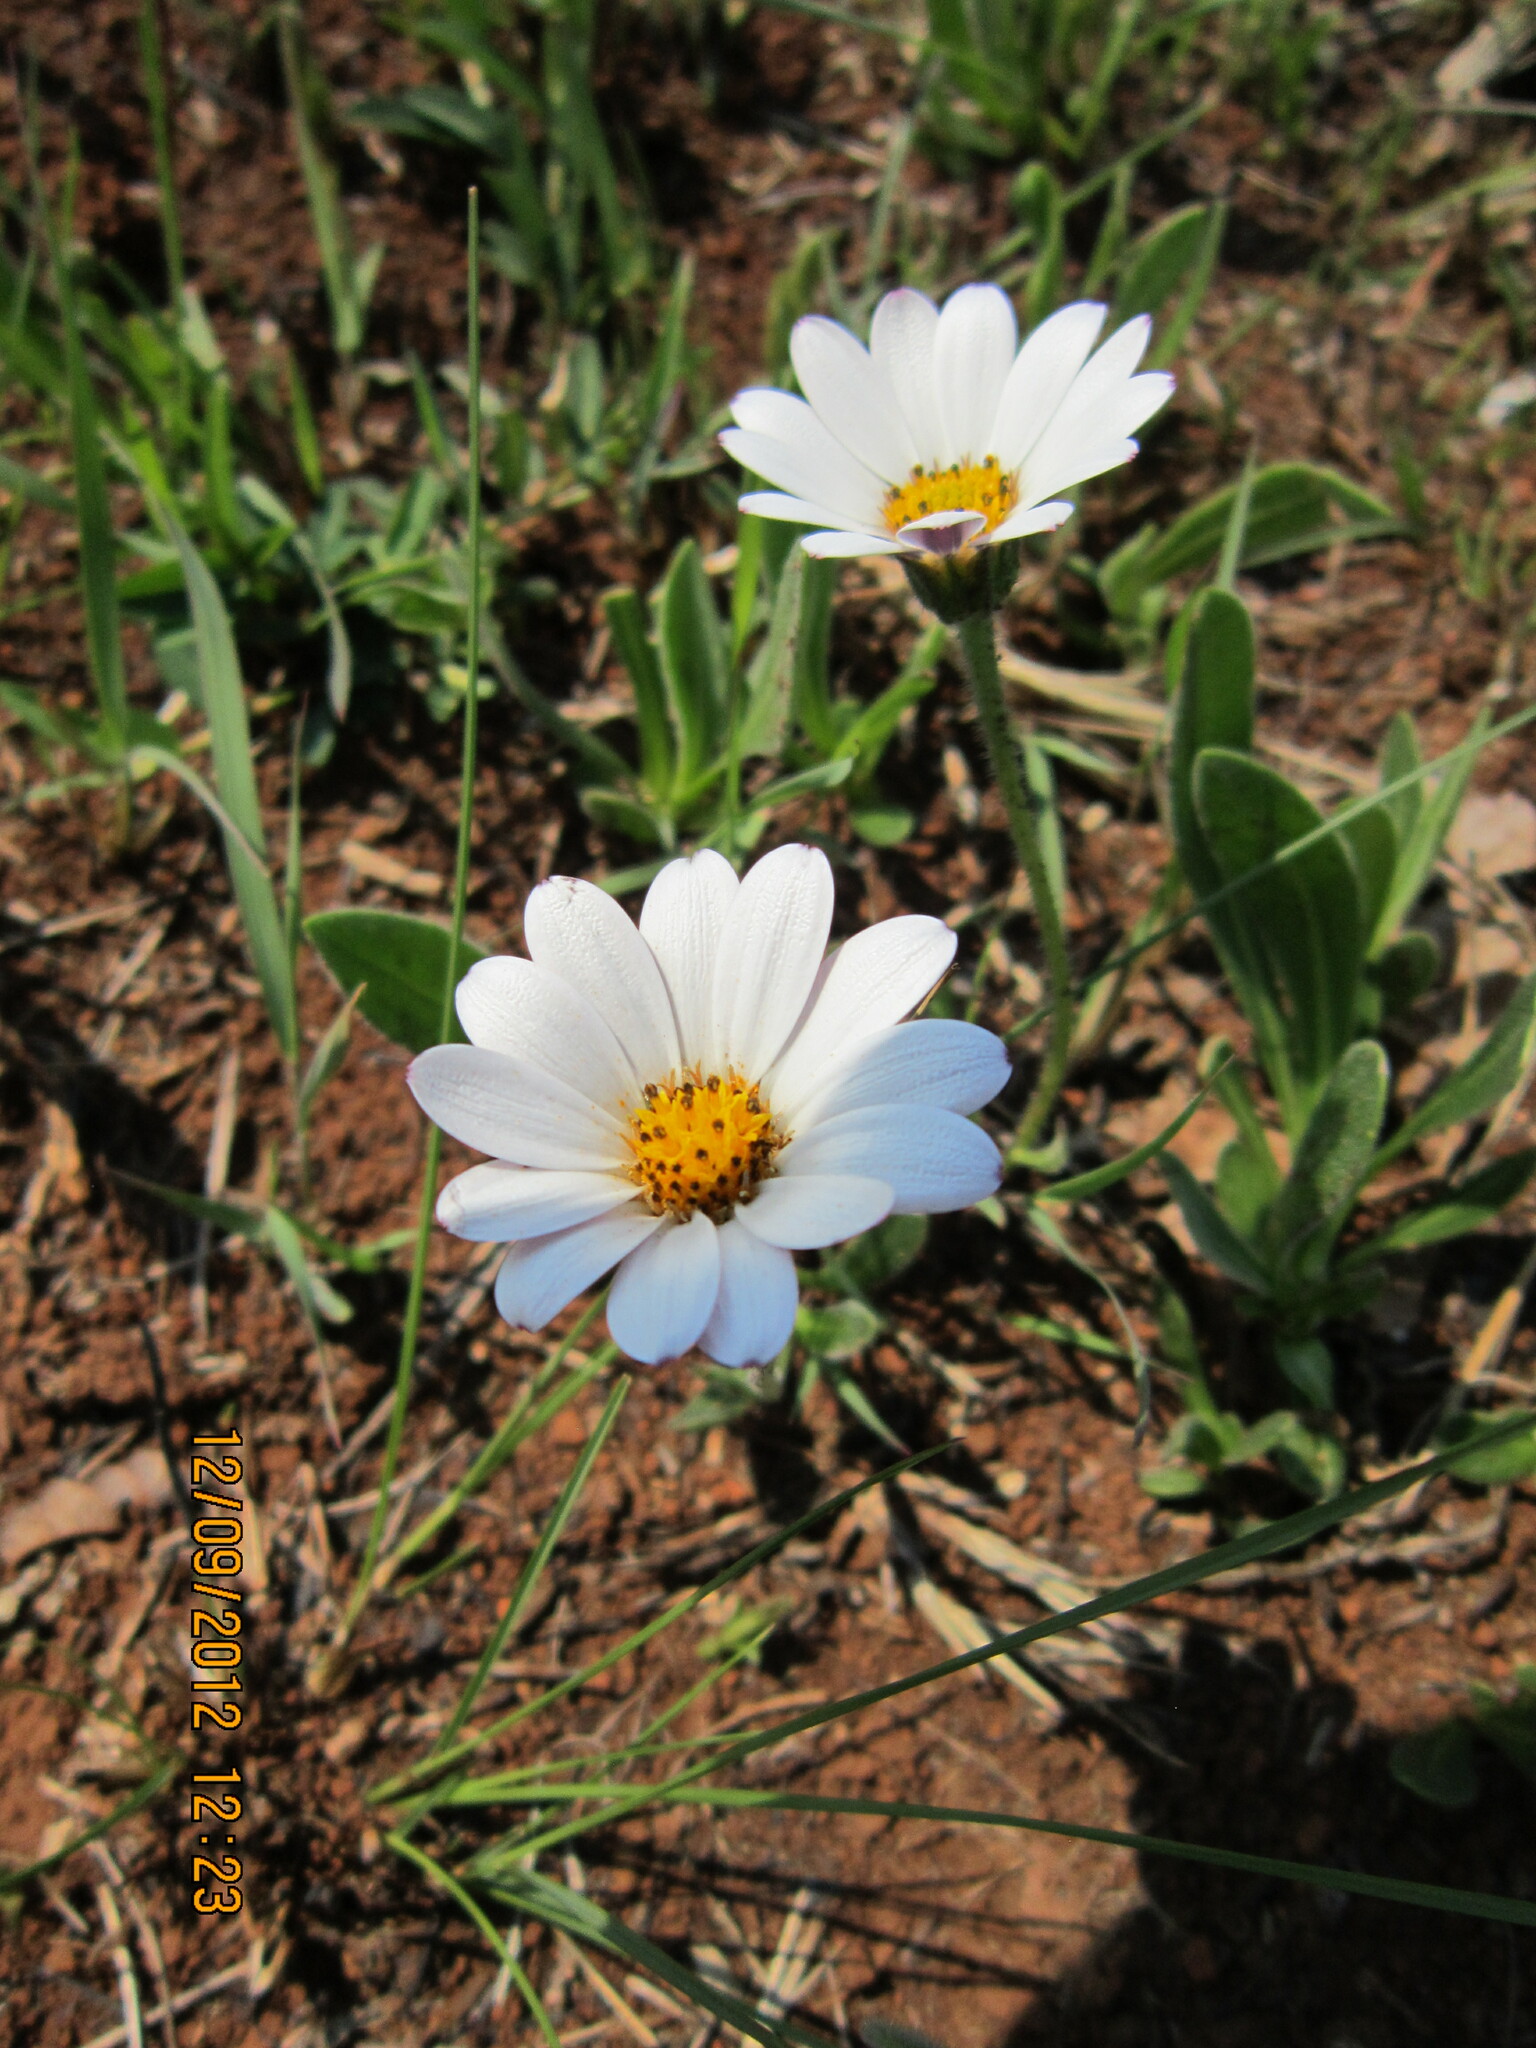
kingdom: Plantae
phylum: Tracheophyta
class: Magnoliopsida
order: Asterales
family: Asteraceae
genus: Dimorphotheca
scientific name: Dimorphotheca caulescens
